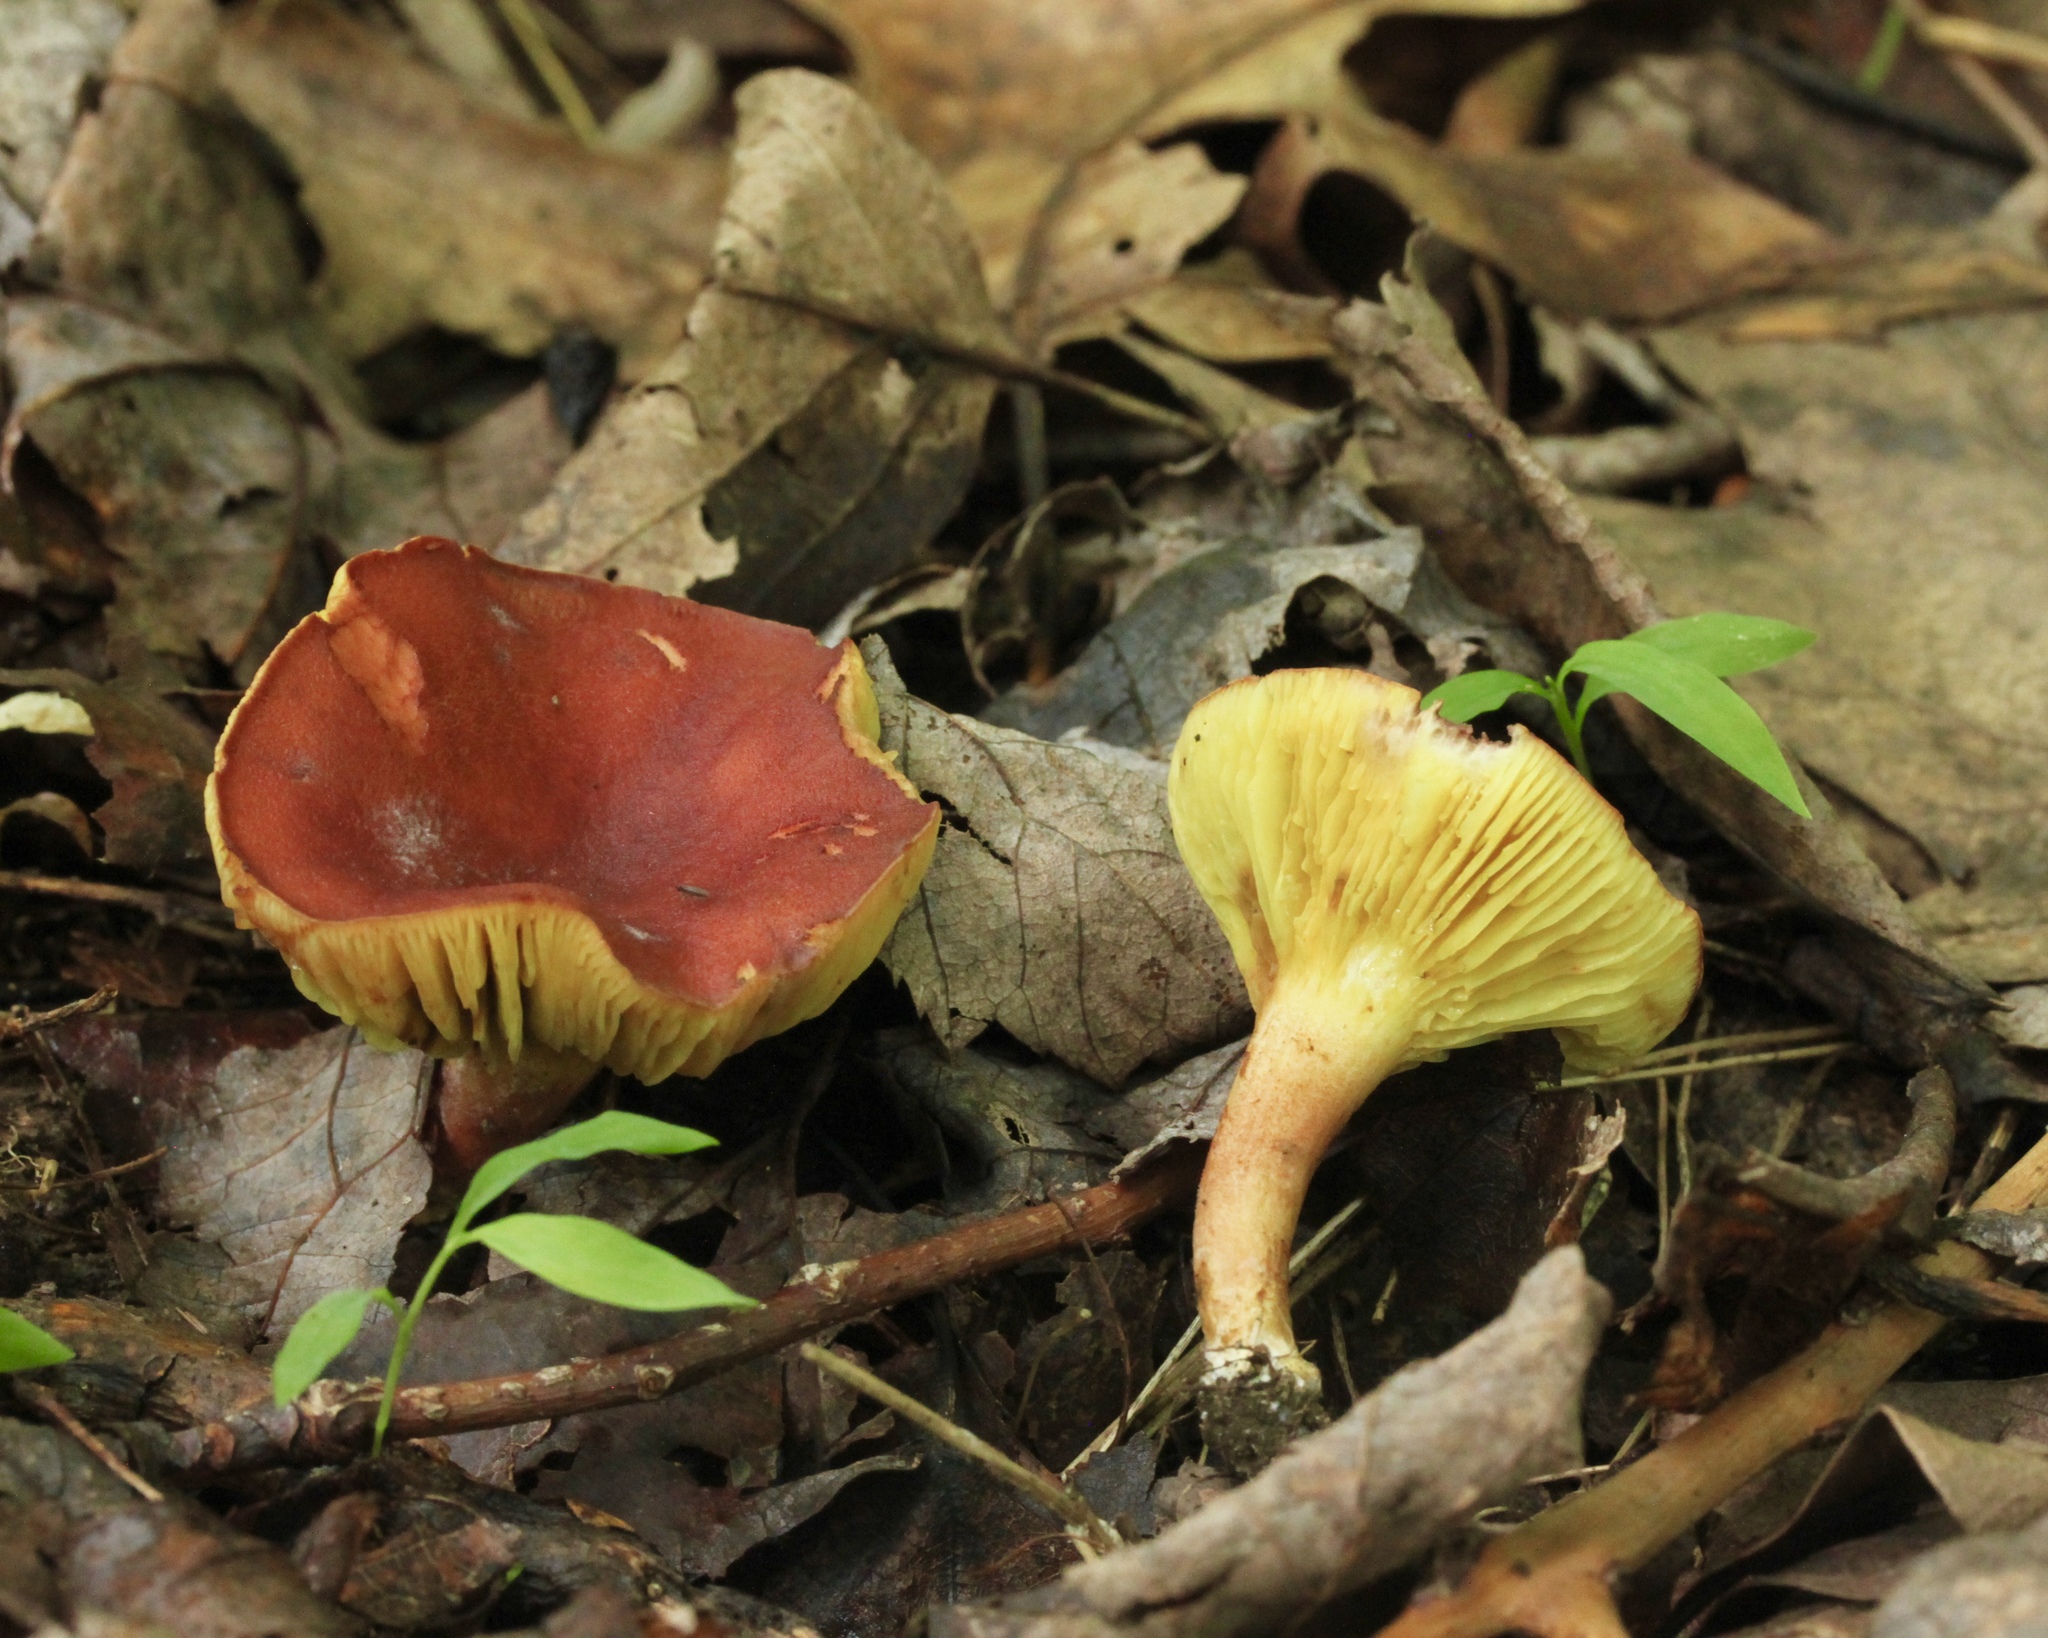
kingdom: Fungi
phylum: Basidiomycota
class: Agaricomycetes
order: Boletales
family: Boletaceae
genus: Phylloporus
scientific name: Phylloporus rhodoxanthus
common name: Golden gilled bolete
